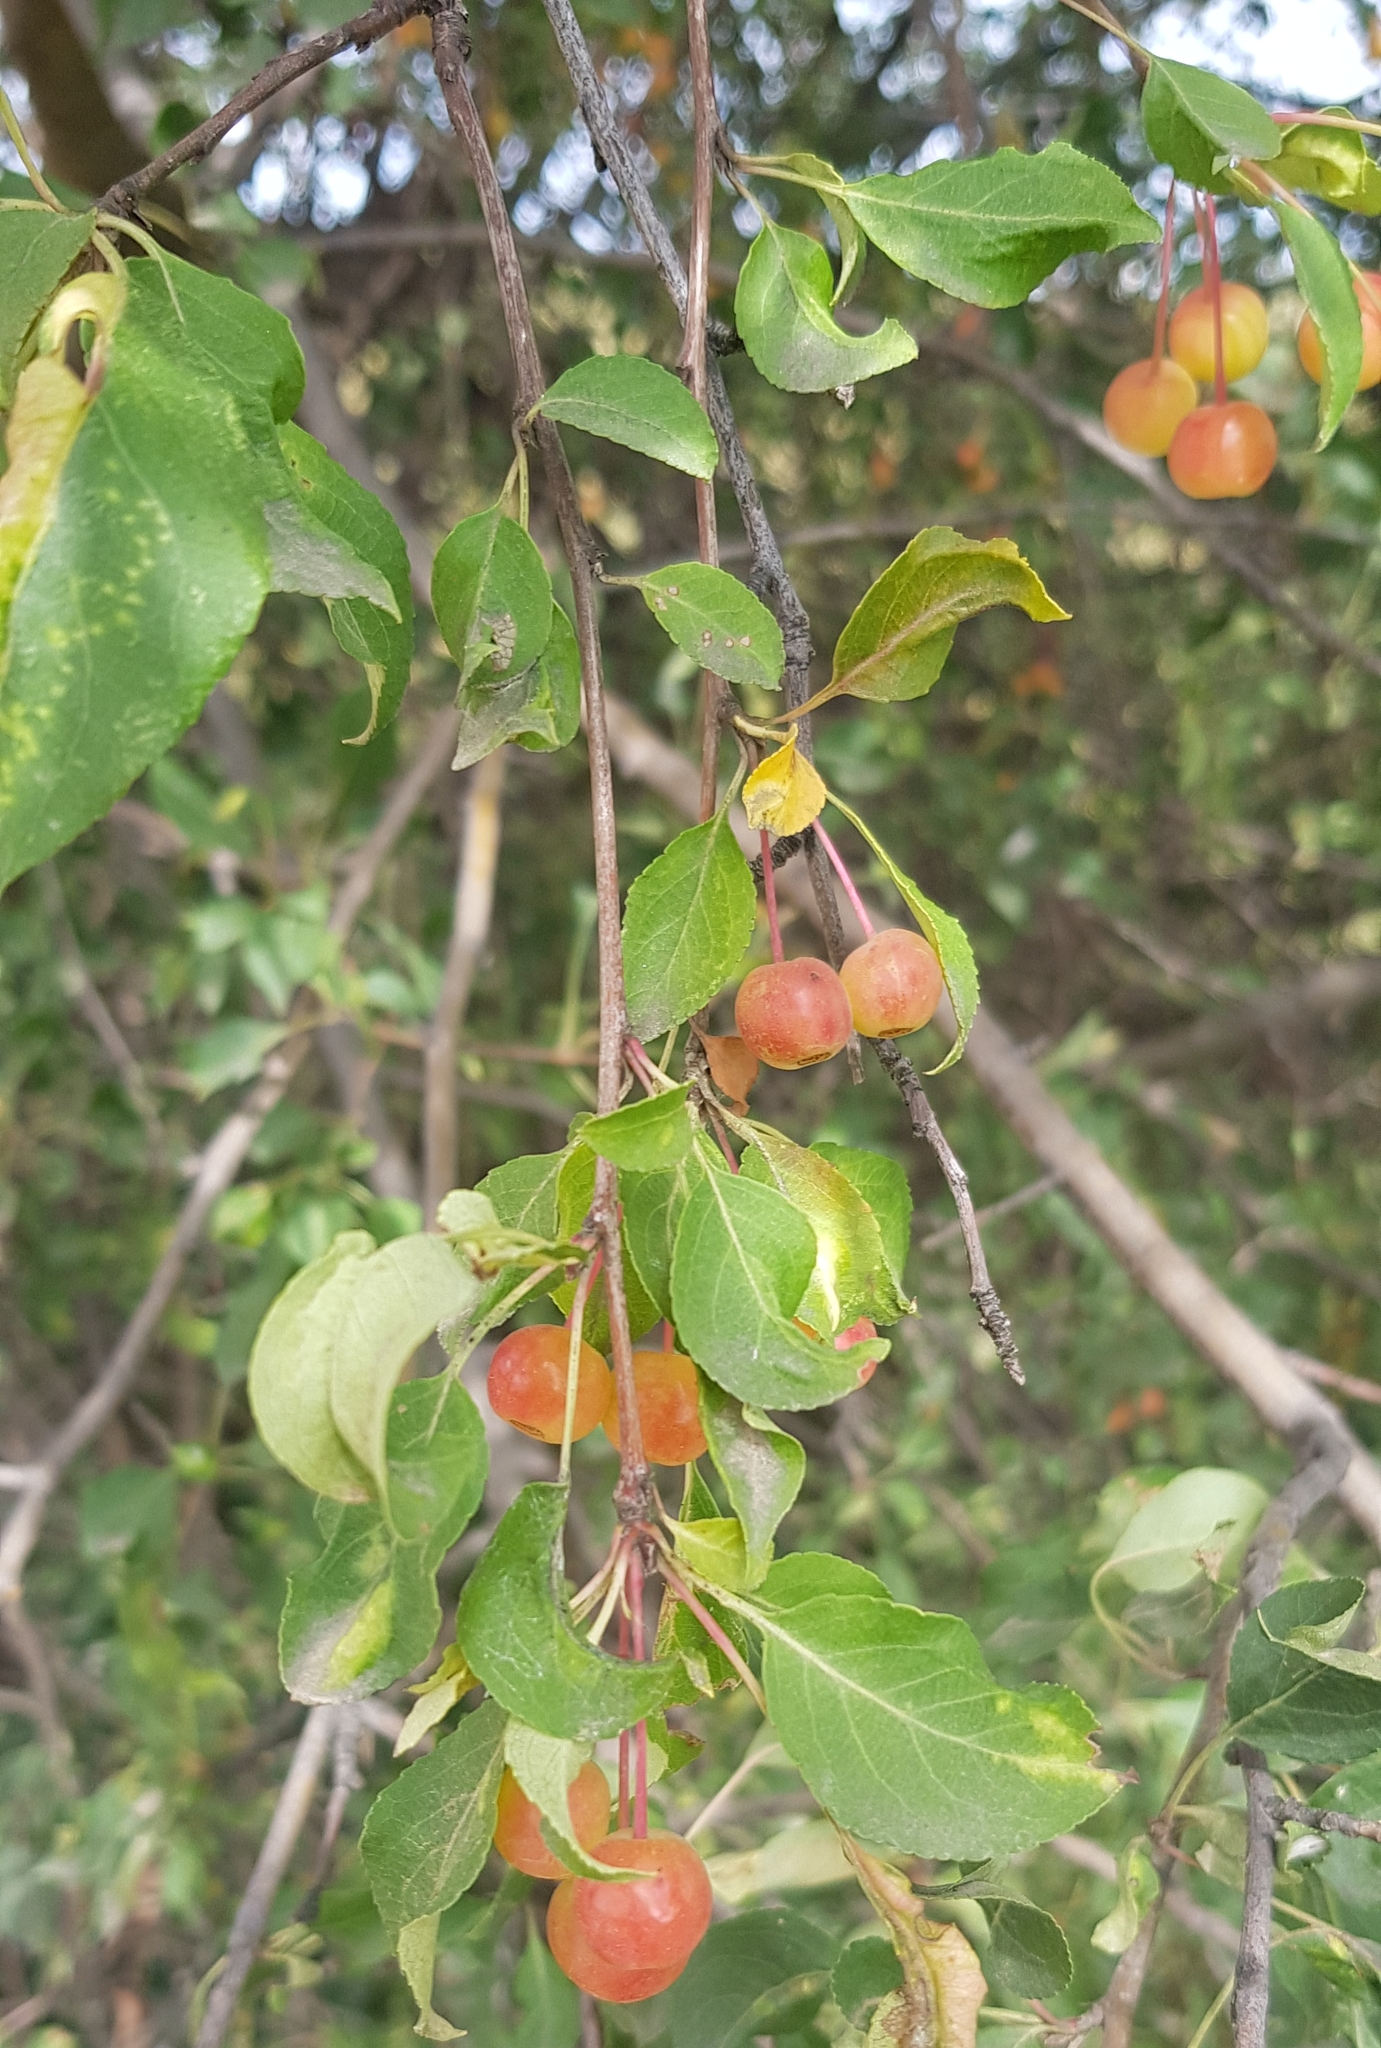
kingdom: Plantae
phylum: Tracheophyta
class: Magnoliopsida
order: Rosales
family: Rosaceae
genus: Malus
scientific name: Malus baccata
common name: Siberian crab
